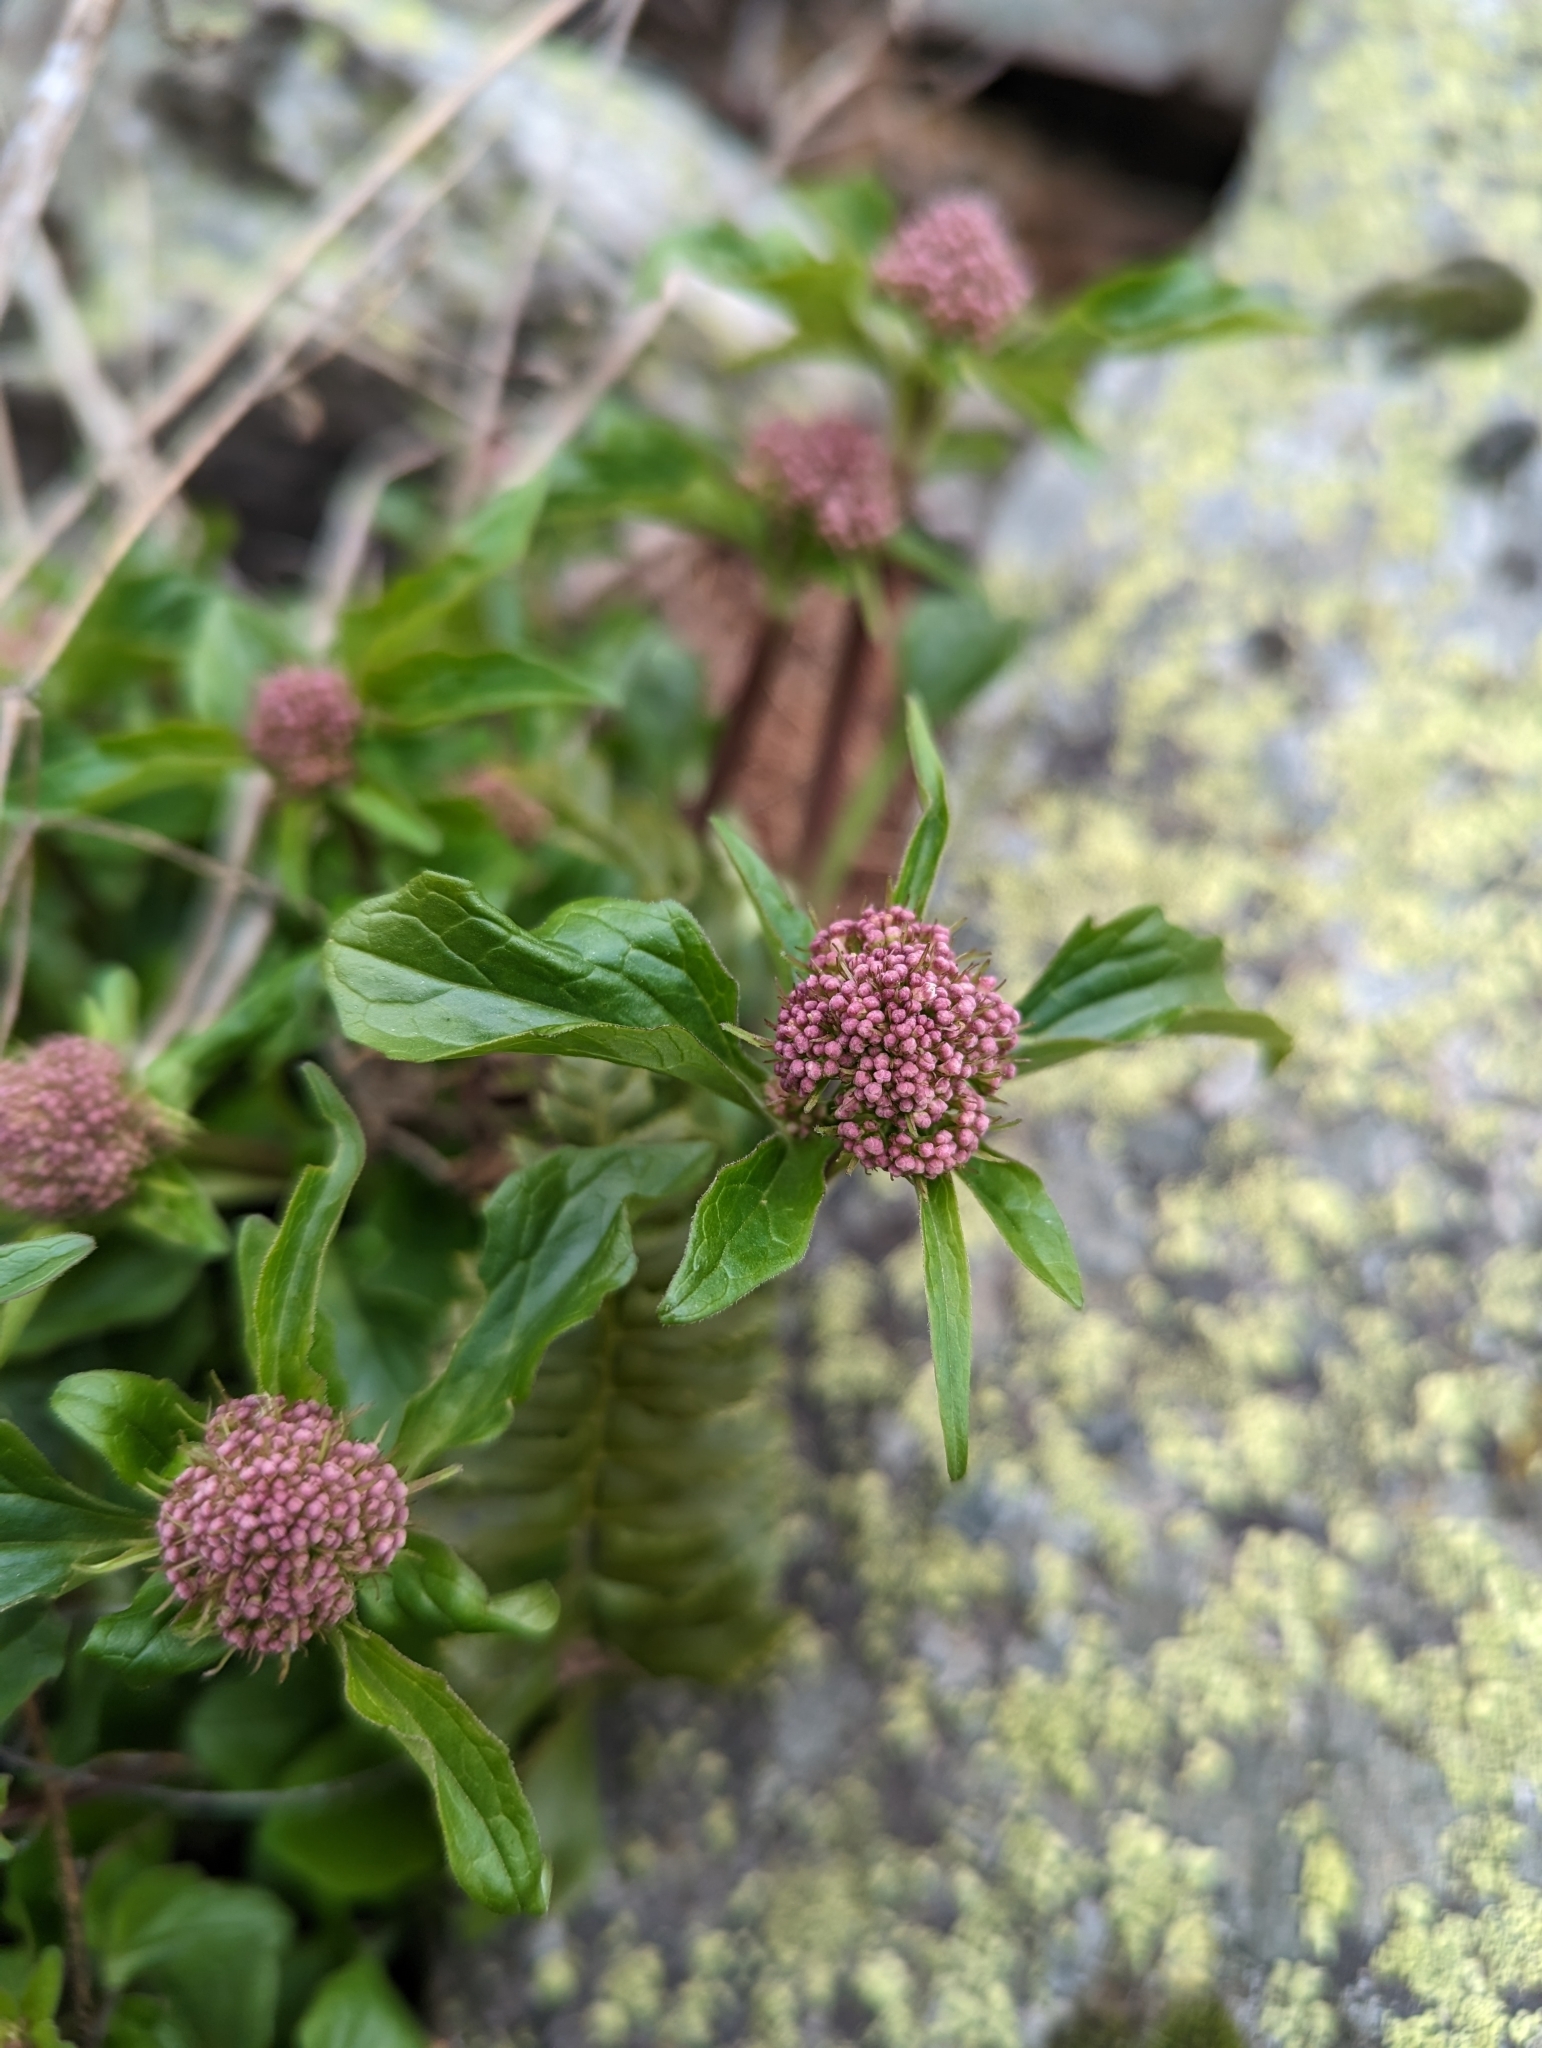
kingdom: Plantae
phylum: Tracheophyta
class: Magnoliopsida
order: Dipsacales
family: Caprifoliaceae
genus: Valeriana
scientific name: Valeriana tripteris
